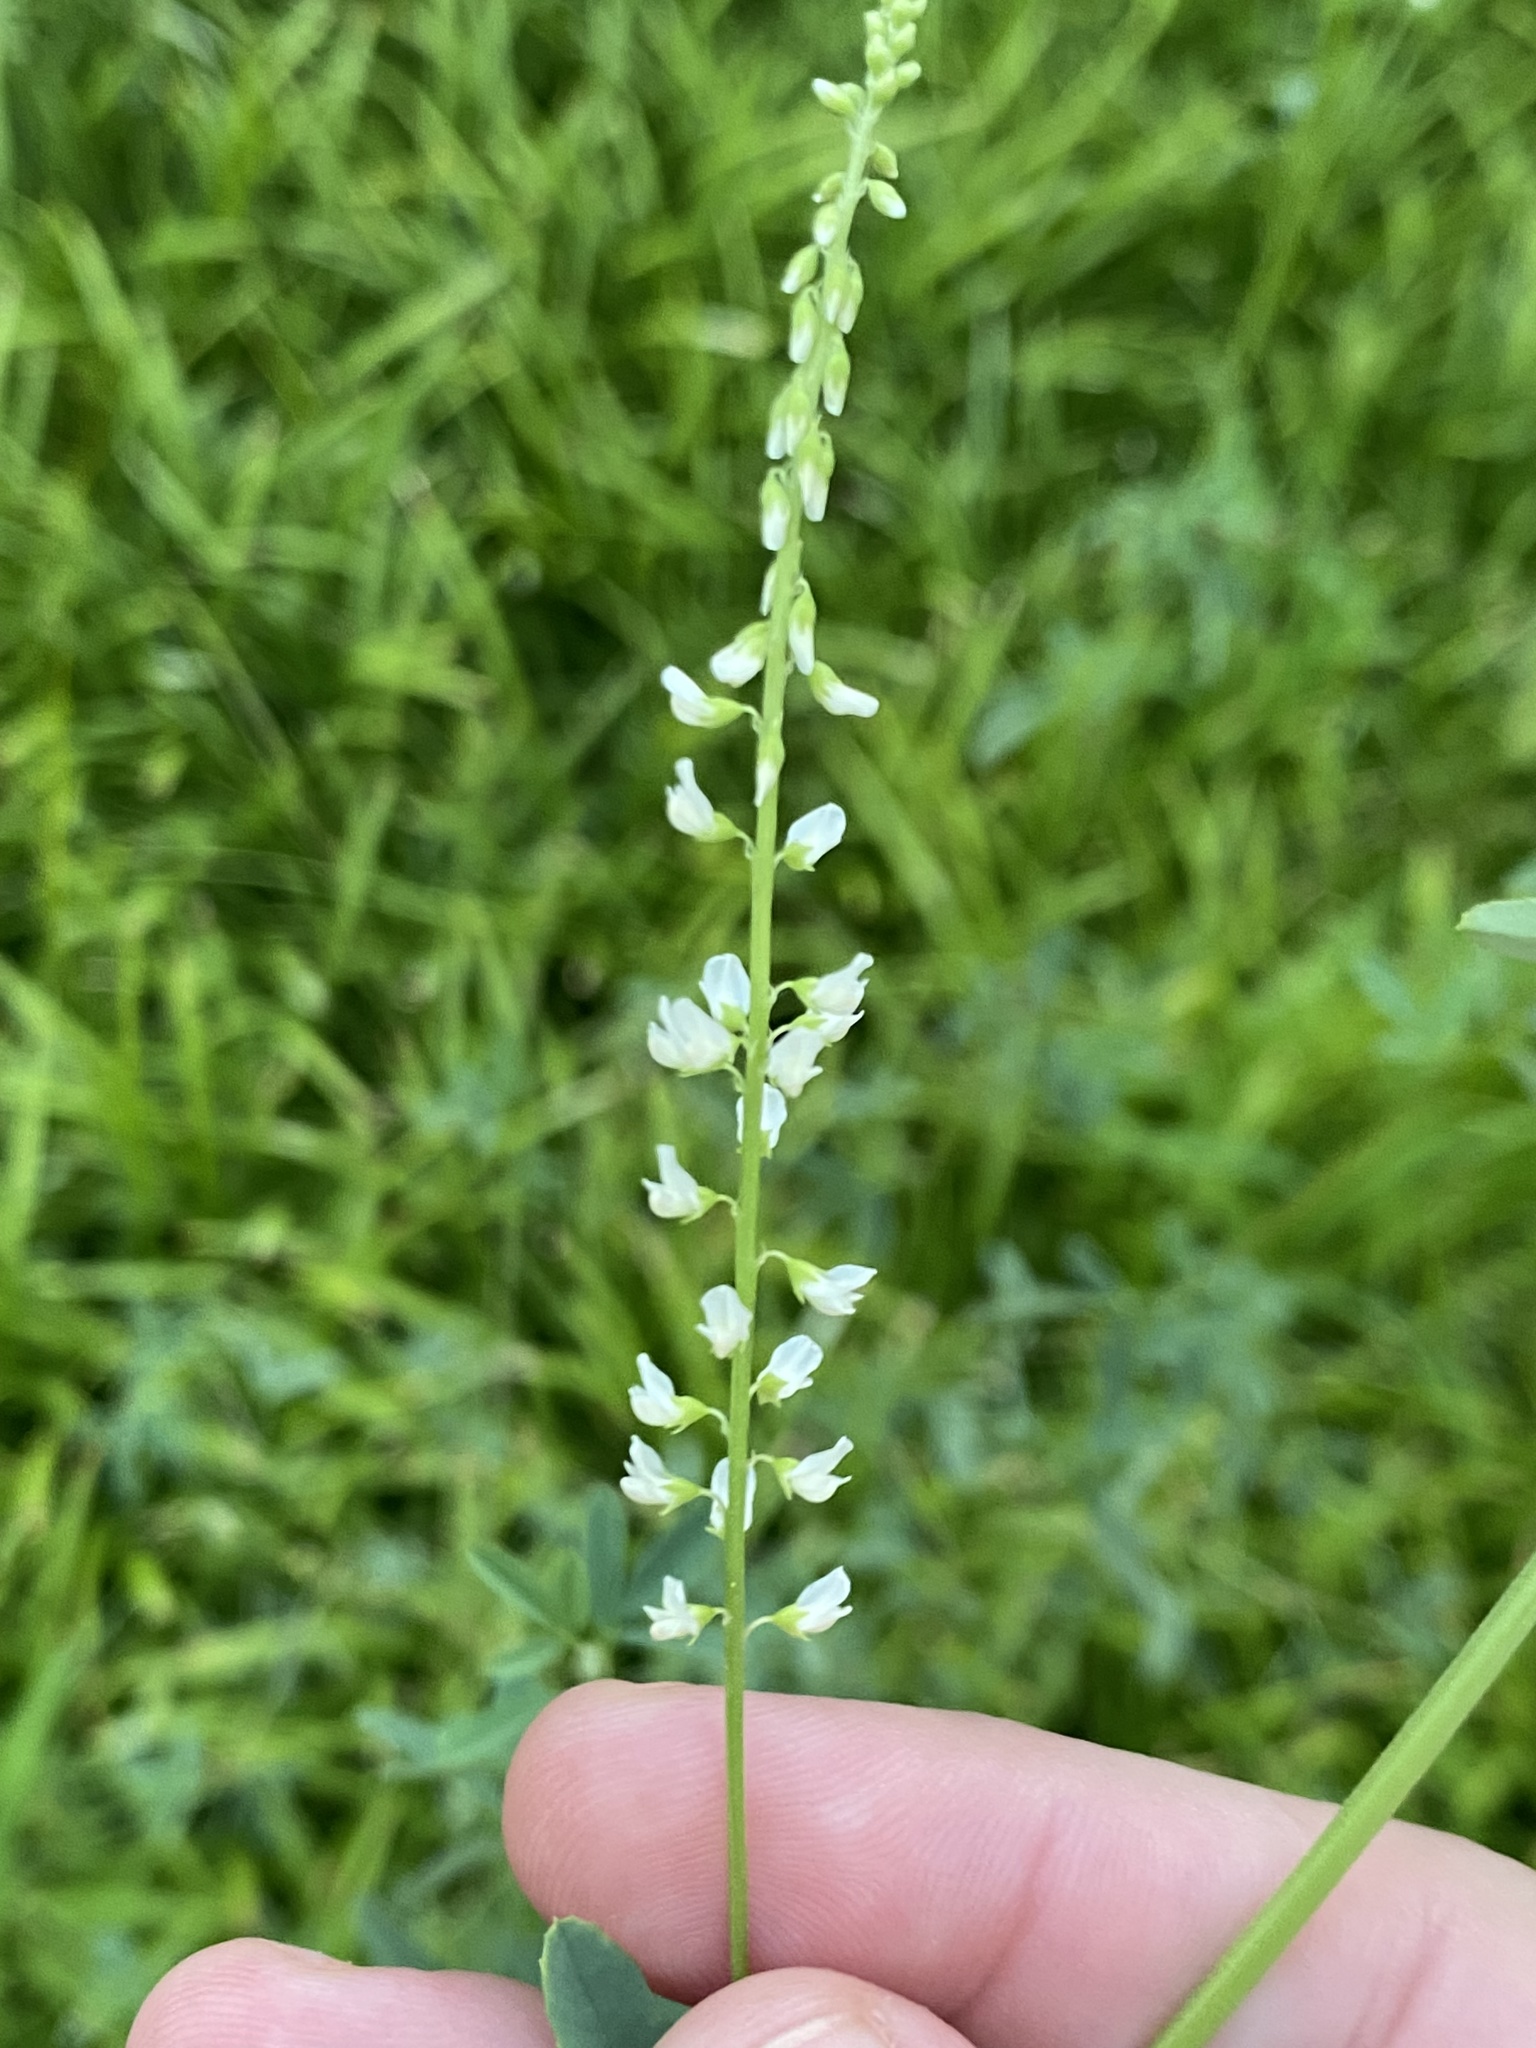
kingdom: Plantae
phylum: Tracheophyta
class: Magnoliopsida
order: Fabales
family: Fabaceae
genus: Melilotus
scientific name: Melilotus albus
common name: White melilot
